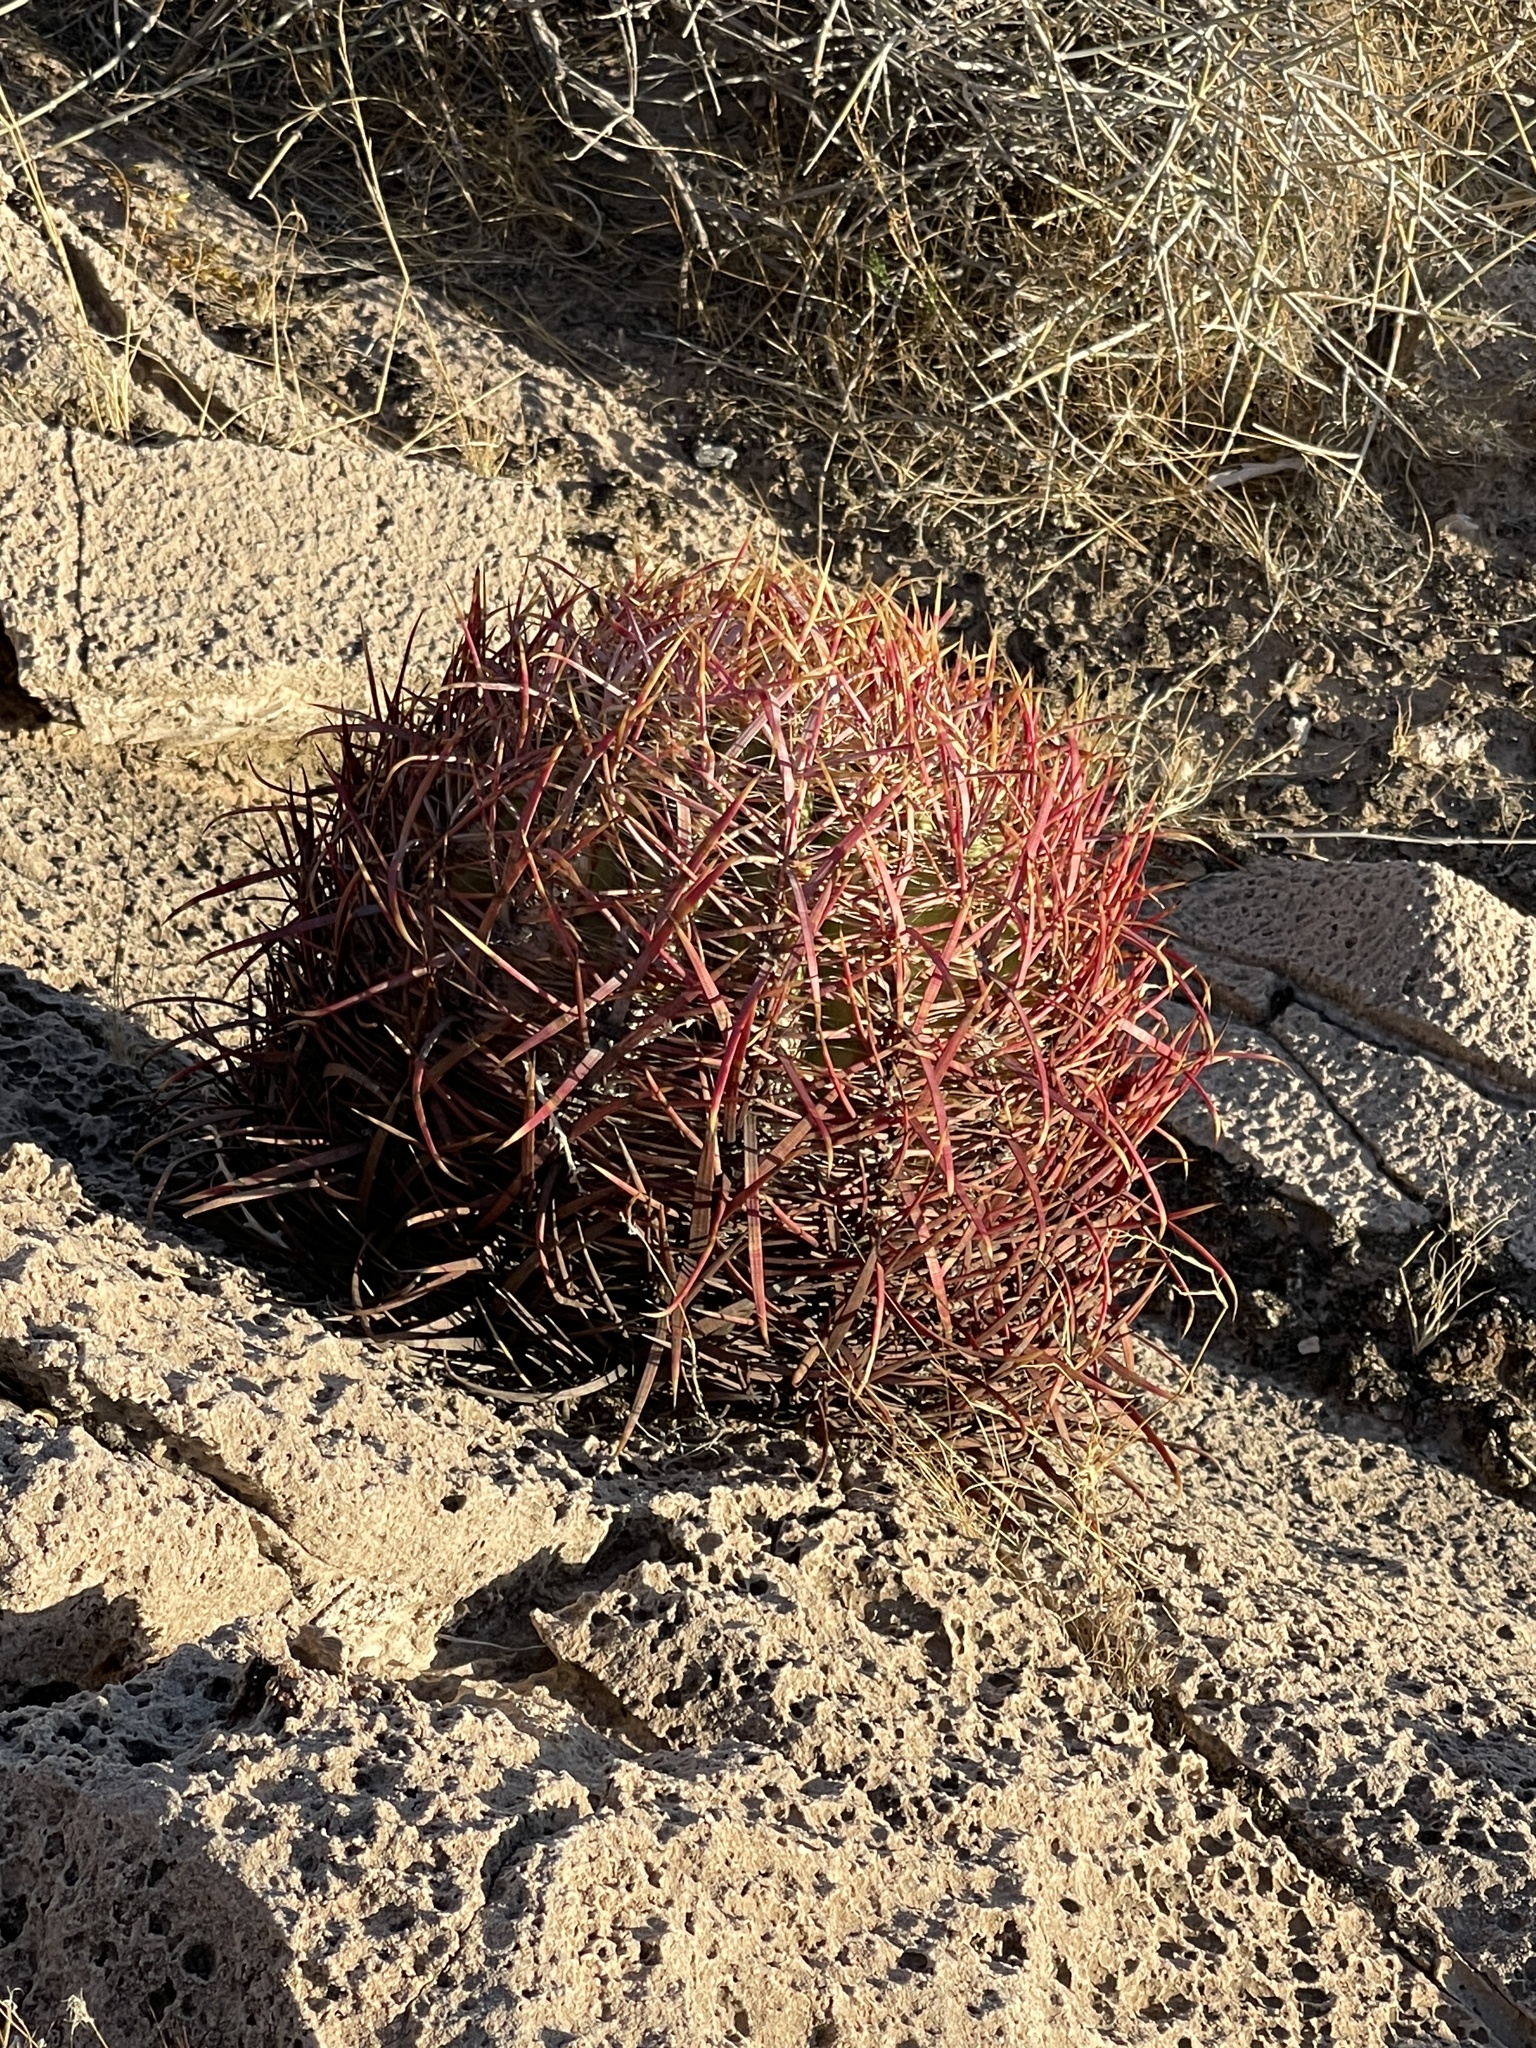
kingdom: Plantae
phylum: Tracheophyta
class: Magnoliopsida
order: Caryophyllales
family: Cactaceae
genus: Ferocactus
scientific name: Ferocactus cylindraceus
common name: California barrel cactus
